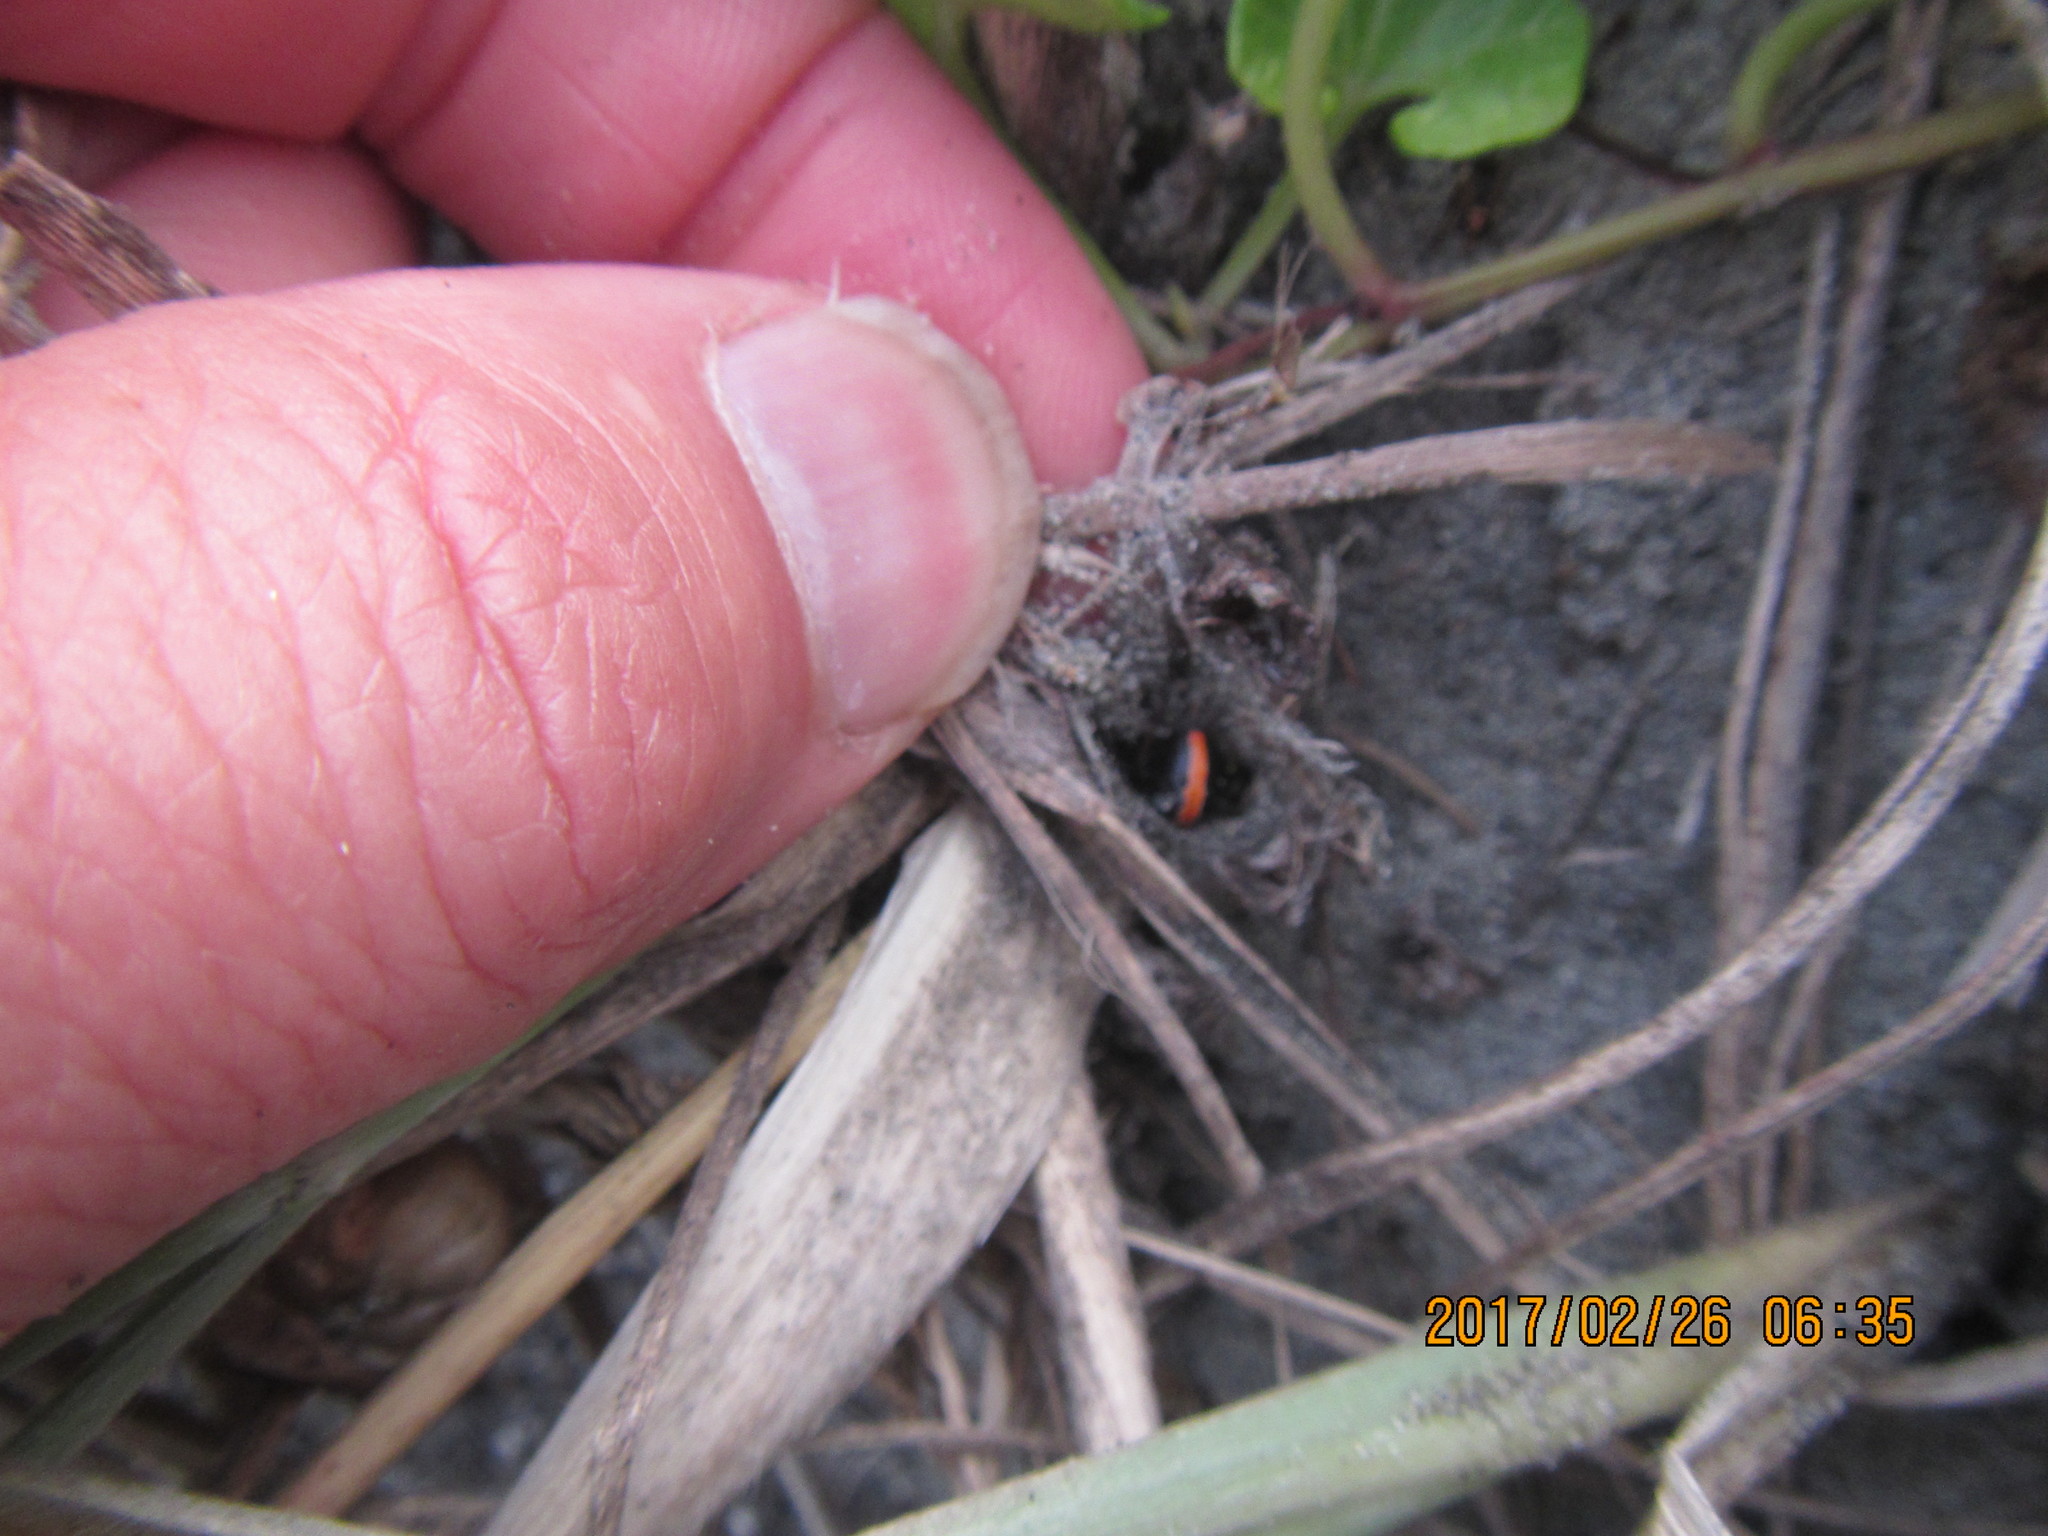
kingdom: Animalia
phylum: Arthropoda
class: Arachnida
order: Araneae
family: Theridiidae
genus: Latrodectus
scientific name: Latrodectus katipo
